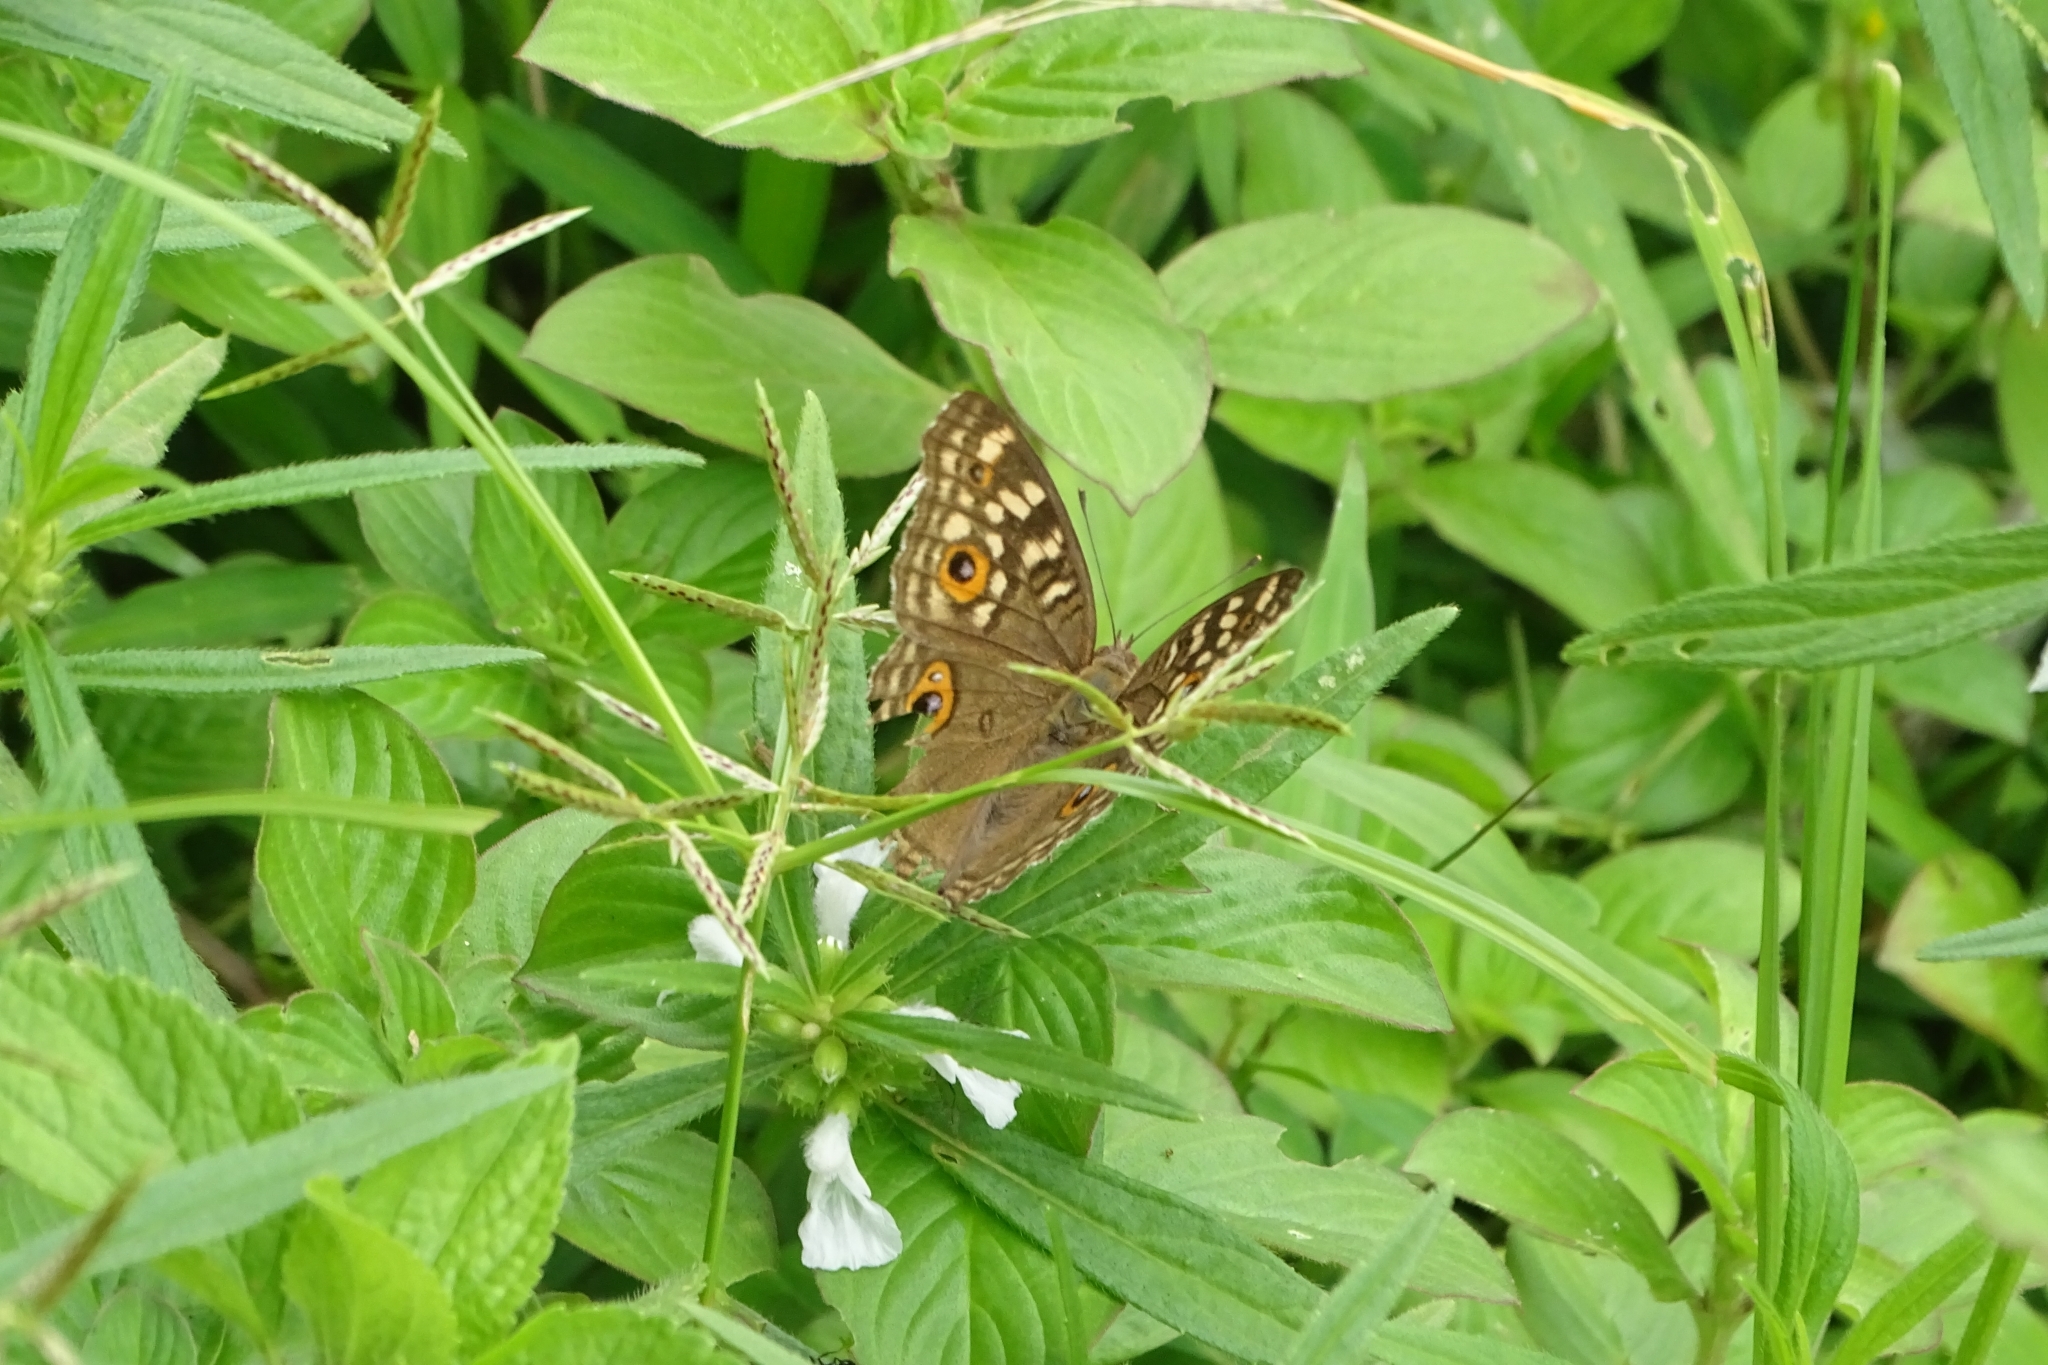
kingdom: Animalia
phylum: Arthropoda
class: Insecta
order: Lepidoptera
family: Nymphalidae
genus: Junonia
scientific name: Junonia lemonias
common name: Lemon pansy
